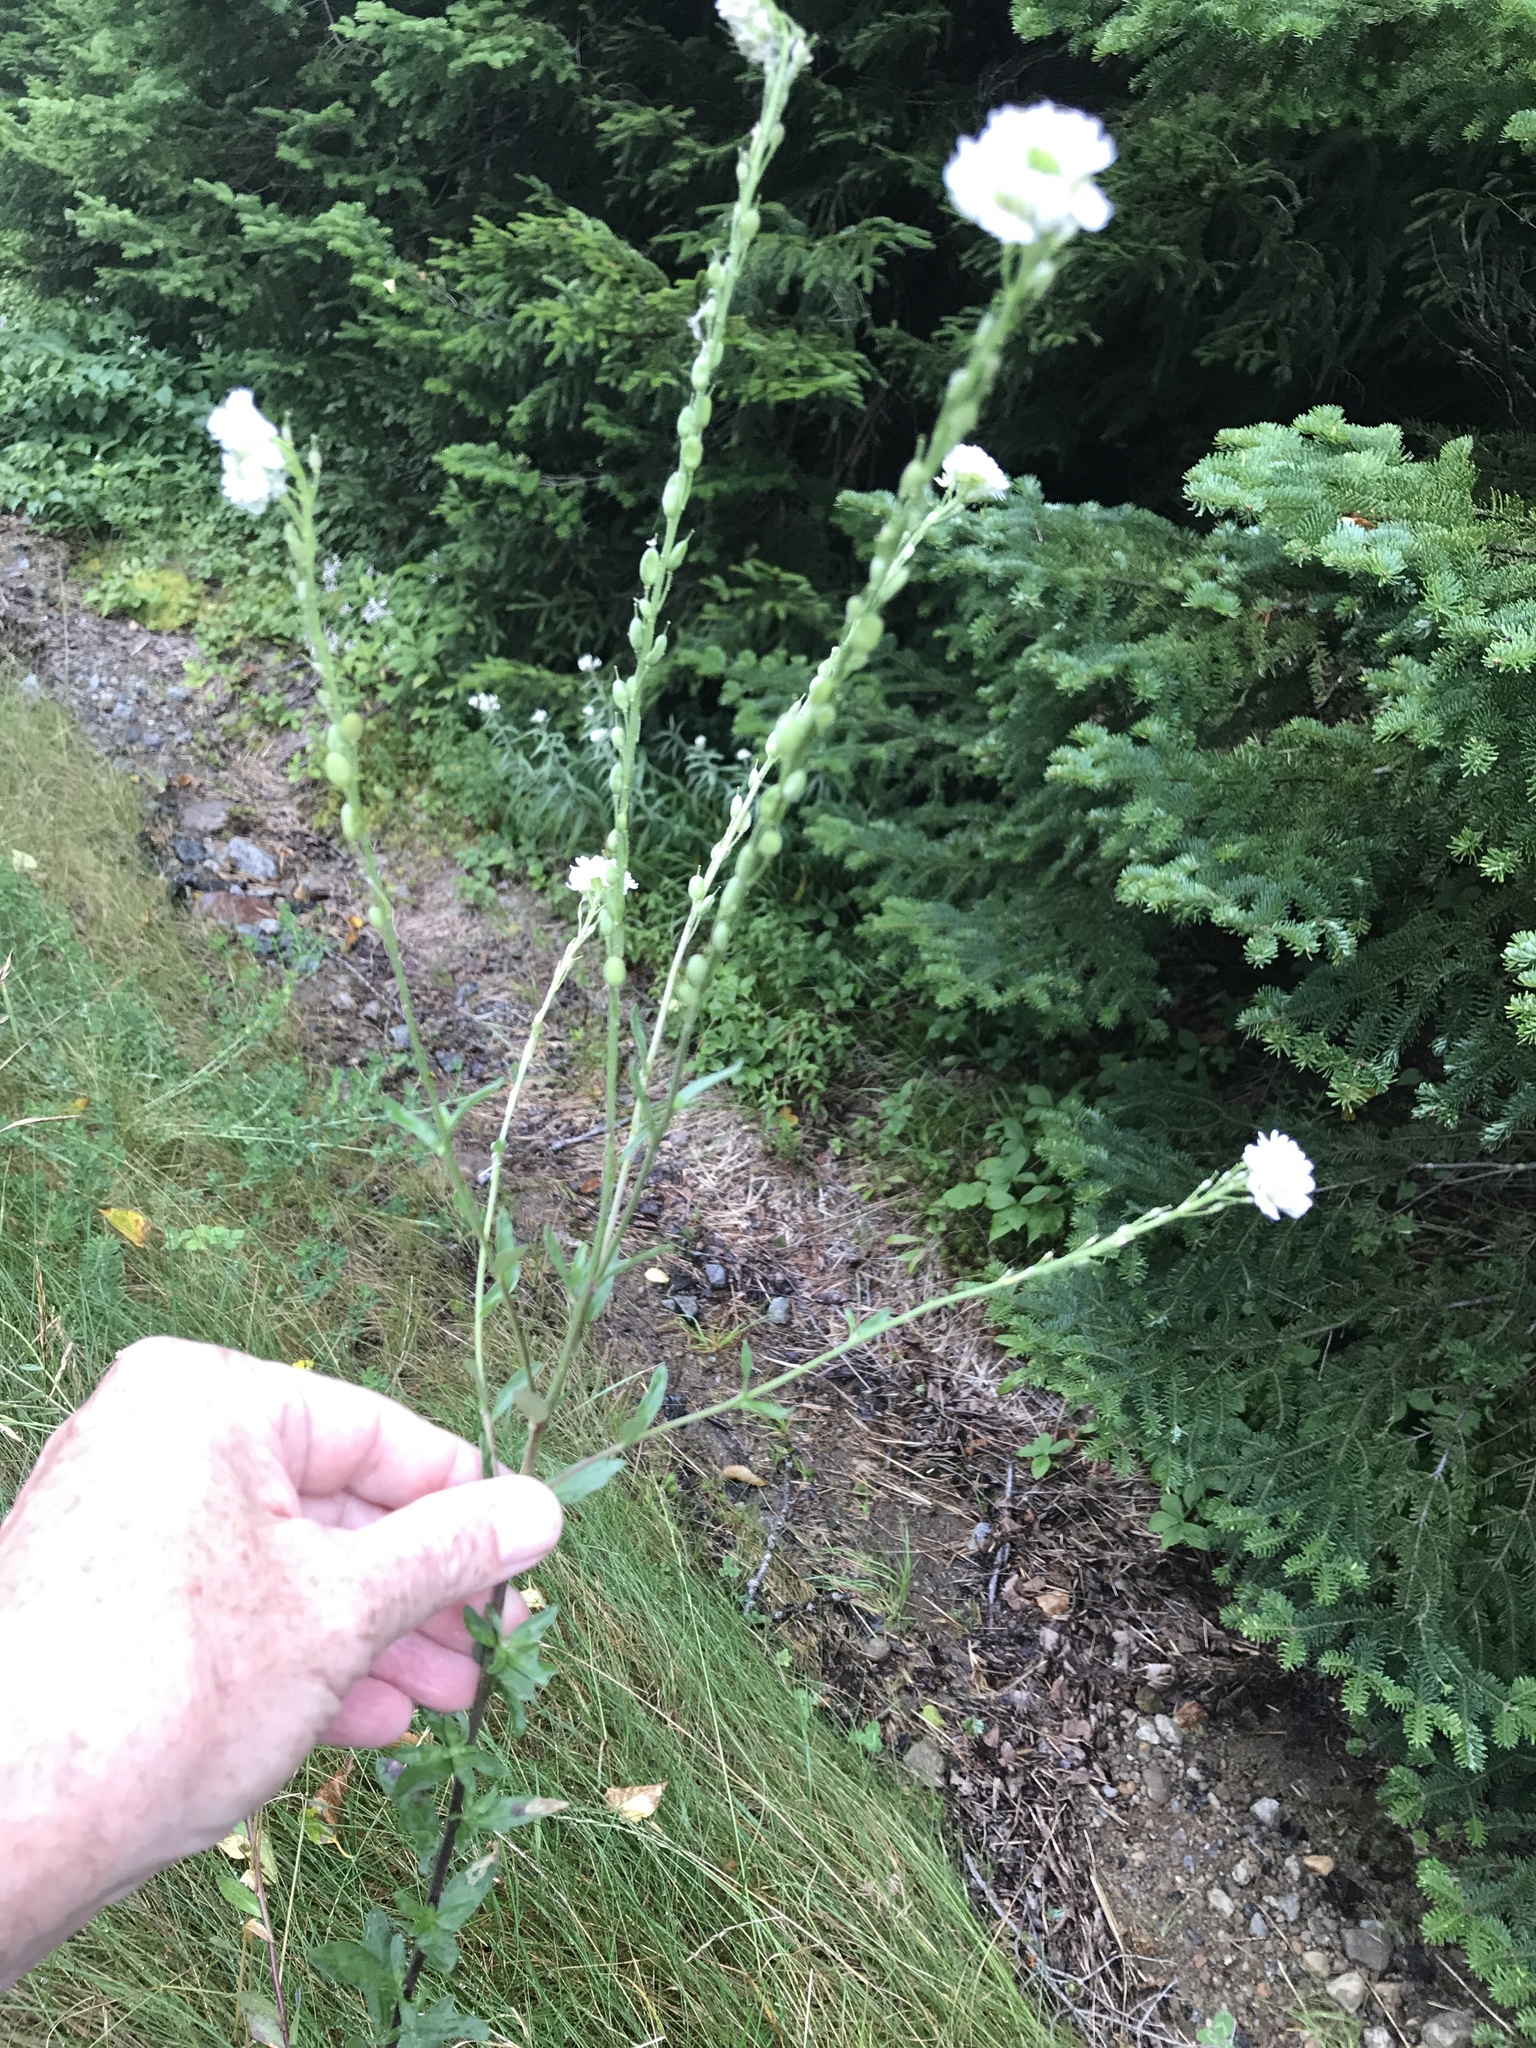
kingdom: Plantae
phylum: Tracheophyta
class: Magnoliopsida
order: Brassicales
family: Brassicaceae
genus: Berteroa
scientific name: Berteroa incana
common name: Hoary alison
